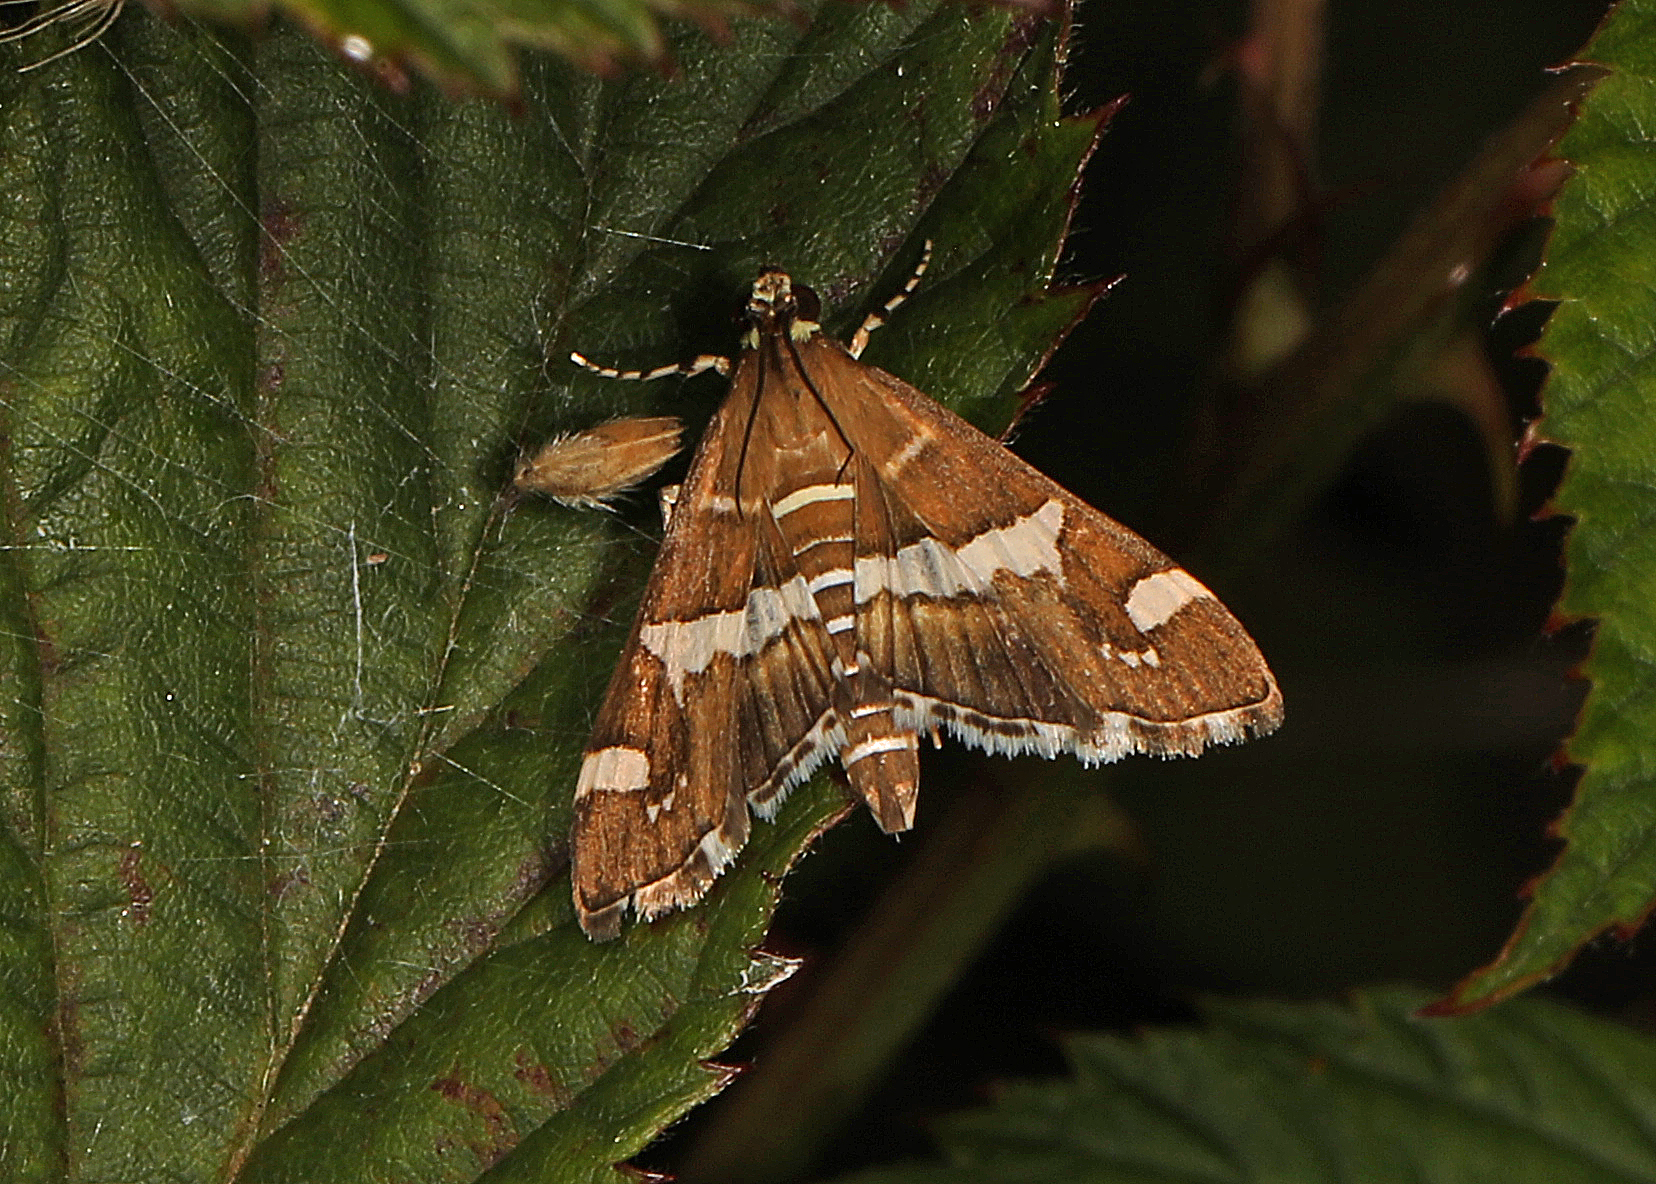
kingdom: Animalia
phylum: Arthropoda
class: Insecta
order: Lepidoptera
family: Crambidae
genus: Spoladea
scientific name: Spoladea recurvalis
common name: Beet webworm moth
